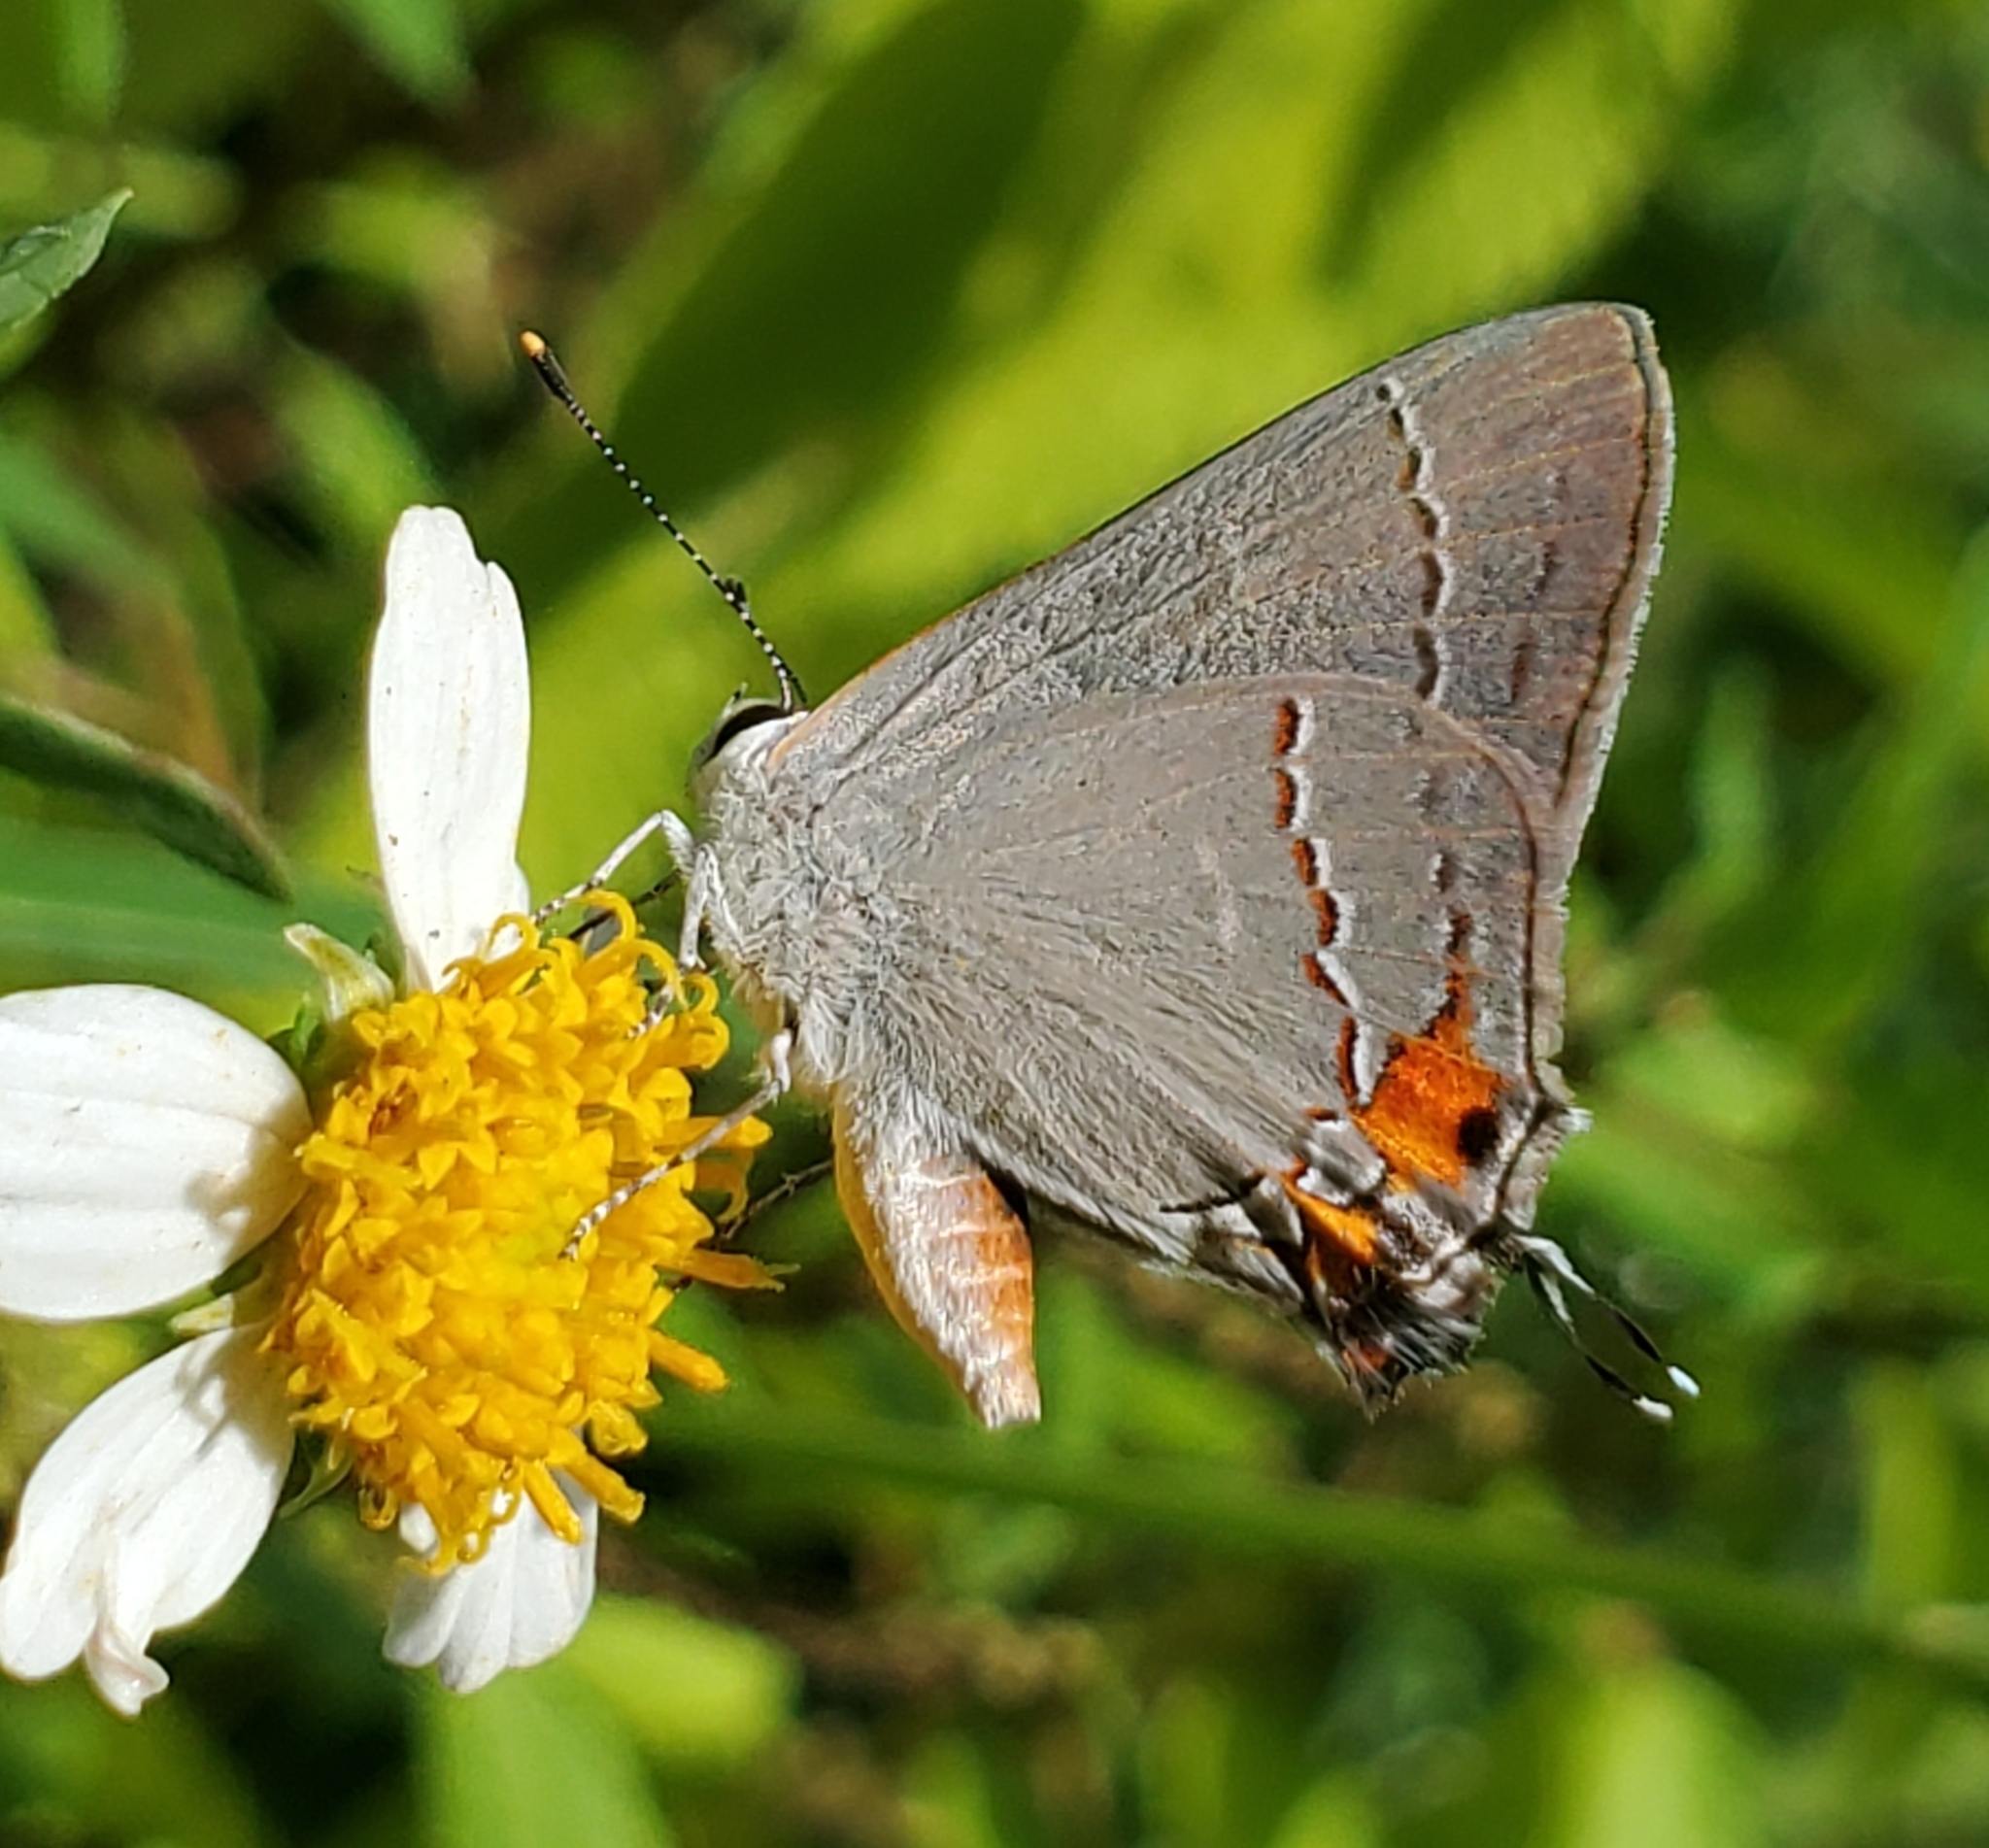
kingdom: Animalia
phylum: Arthropoda
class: Insecta
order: Lepidoptera
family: Lycaenidae
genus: Strymon
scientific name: Strymon melinus
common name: Gray hairstreak
